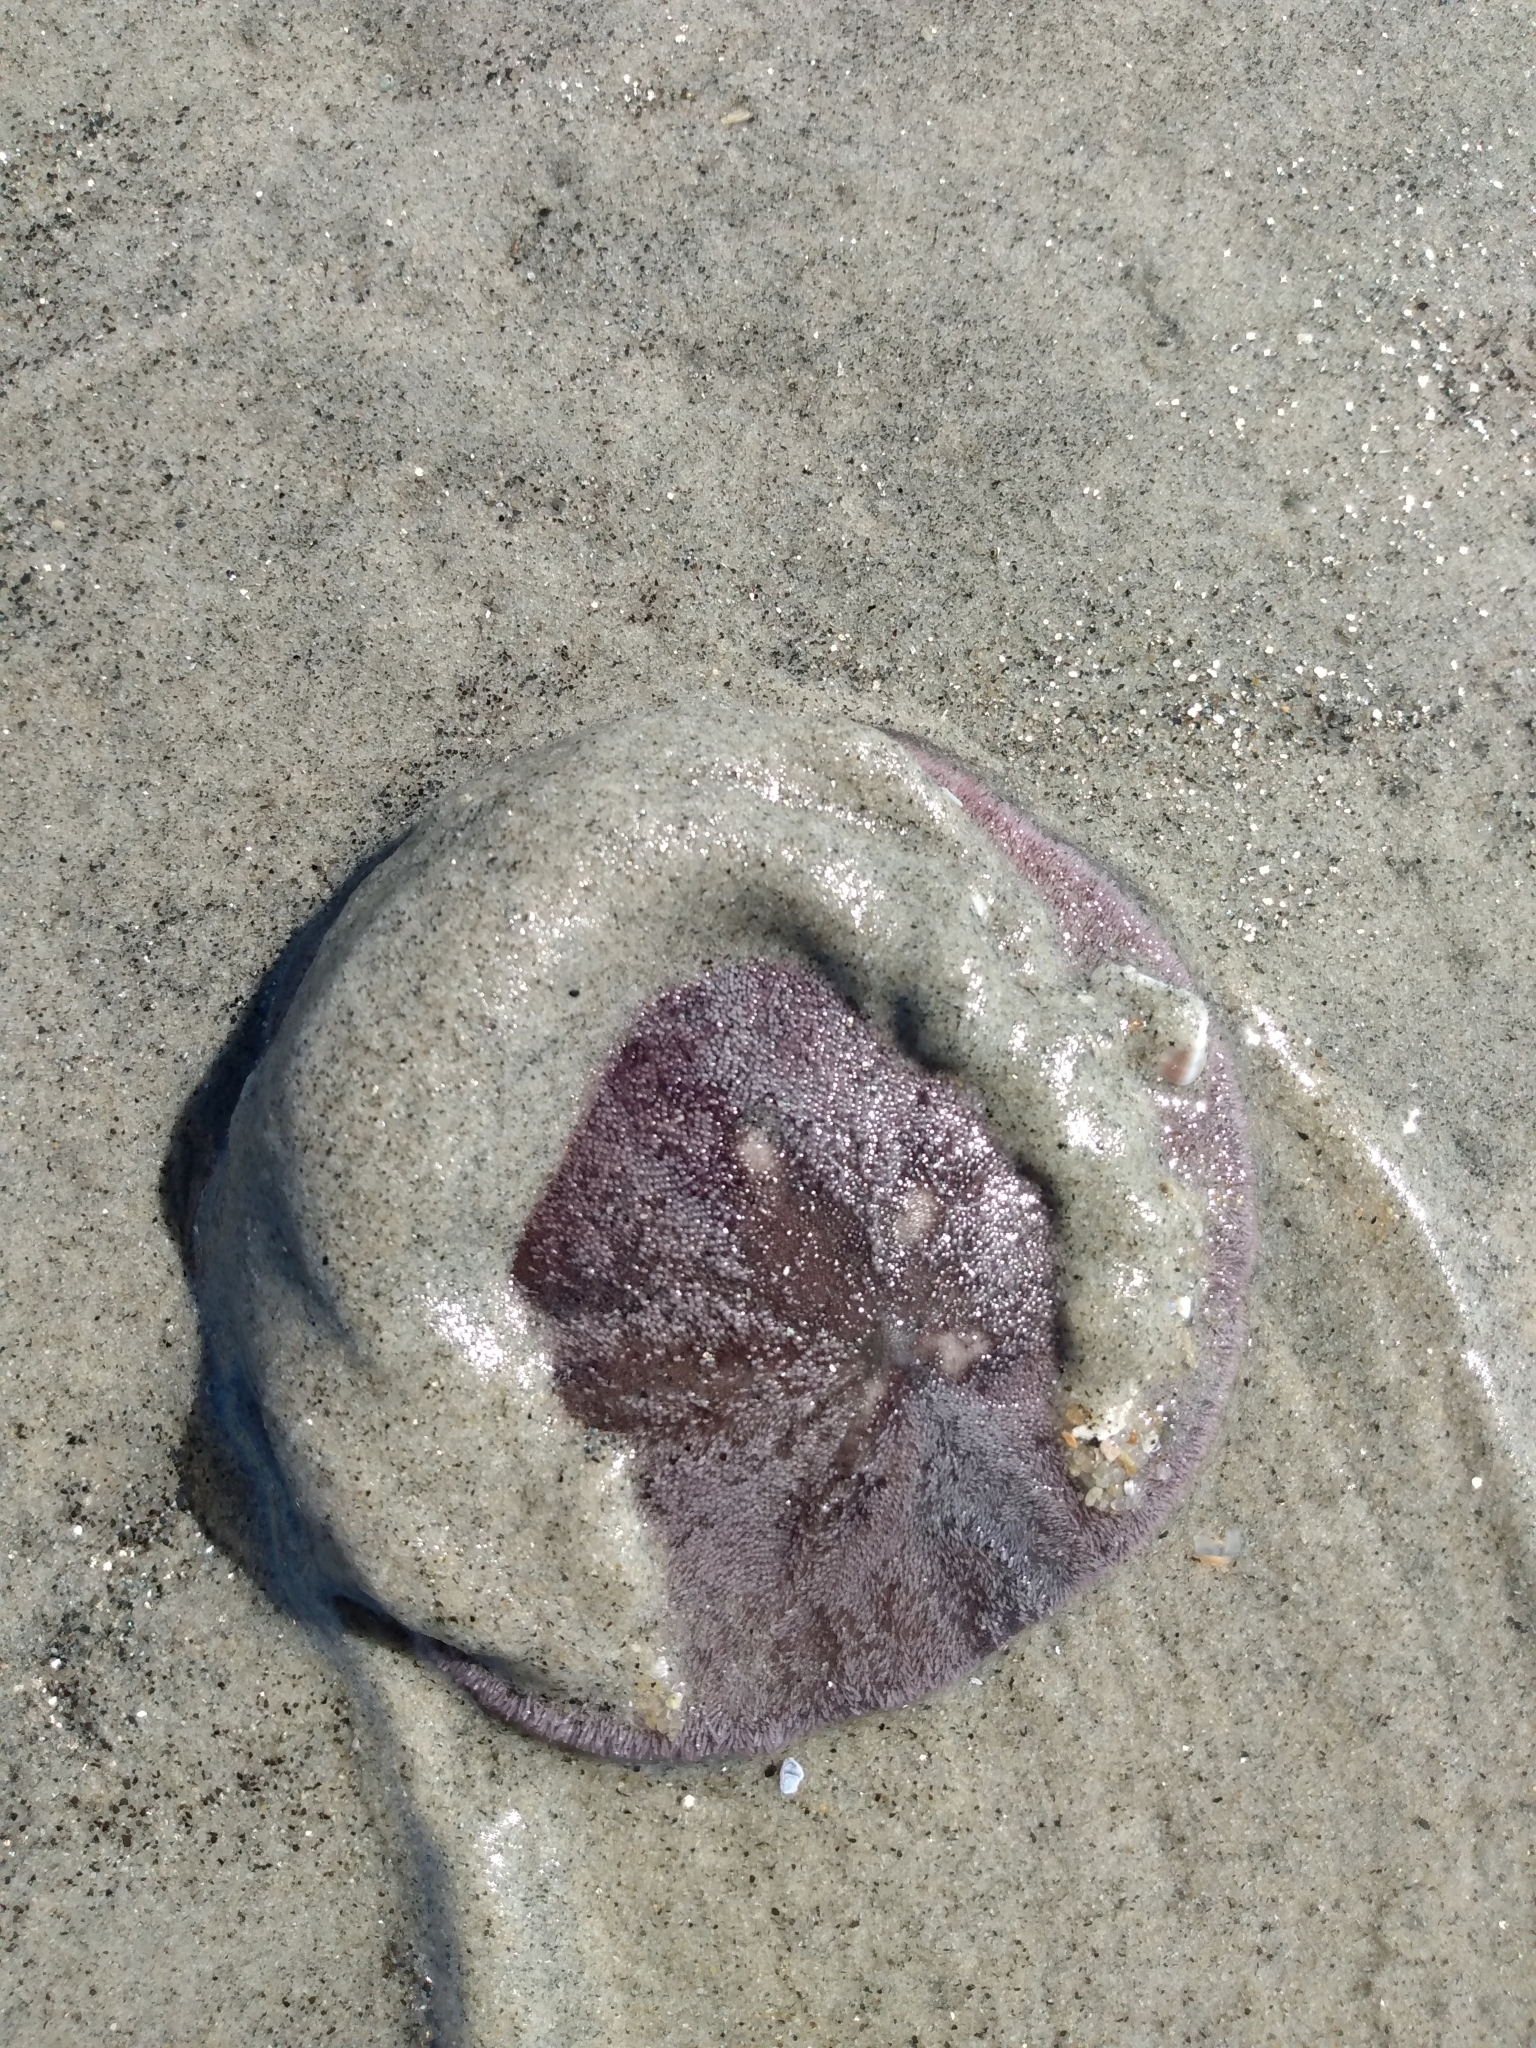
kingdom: Animalia
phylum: Echinodermata
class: Echinoidea
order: Echinolampadacea
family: Dendrasteridae
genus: Dendraster
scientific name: Dendraster excentricus
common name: Eccentric sand dollar sea urchin
